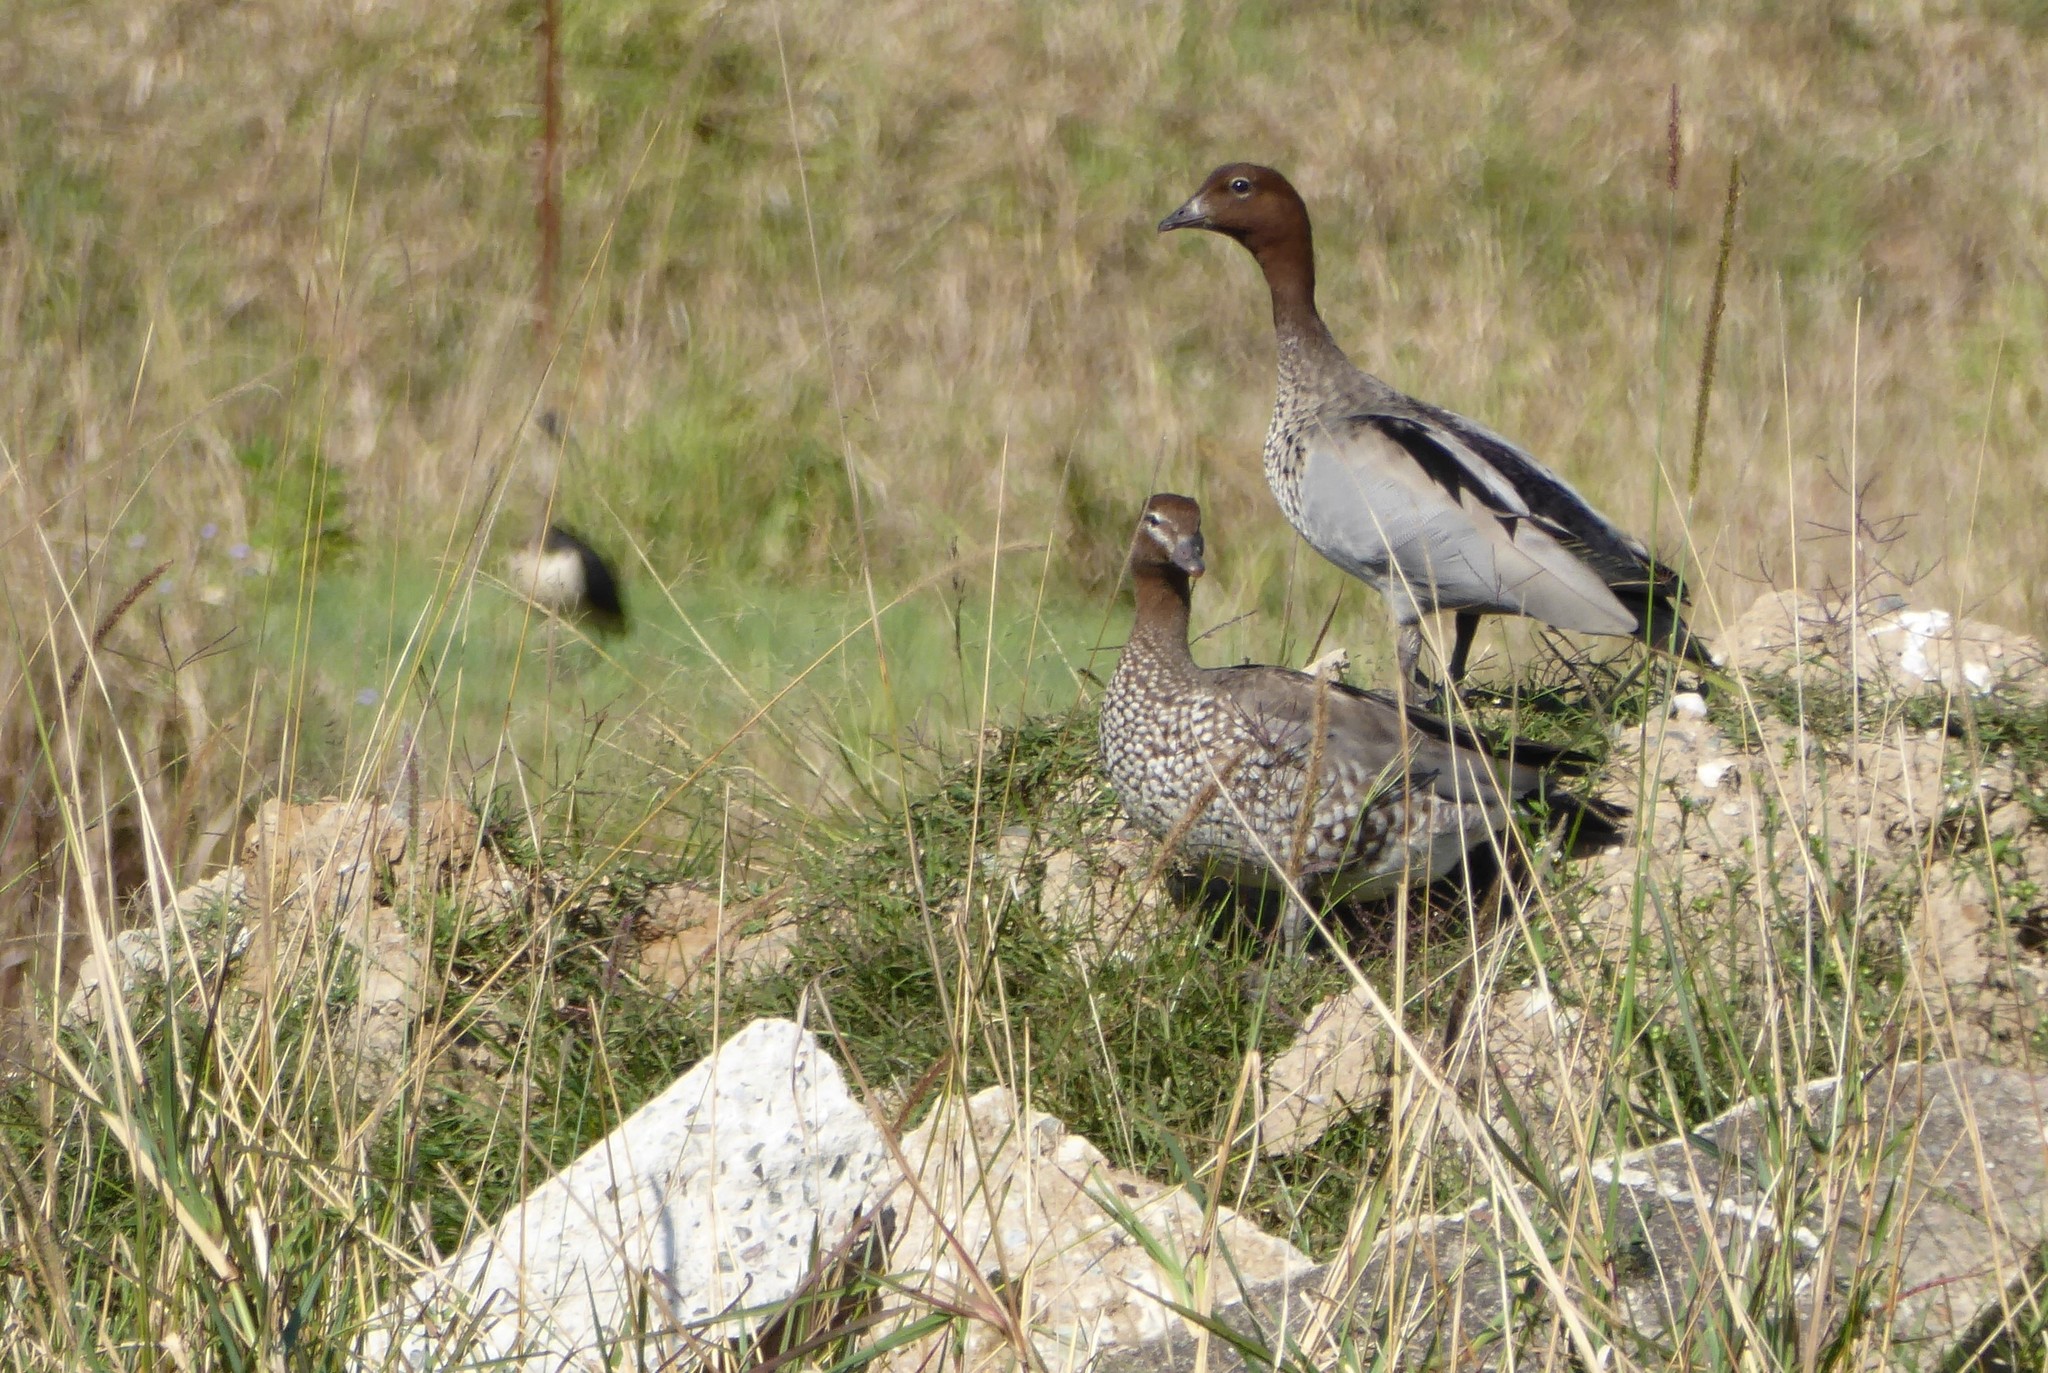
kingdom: Animalia
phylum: Chordata
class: Aves
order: Anseriformes
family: Anatidae
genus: Chenonetta
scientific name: Chenonetta jubata
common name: Maned duck
